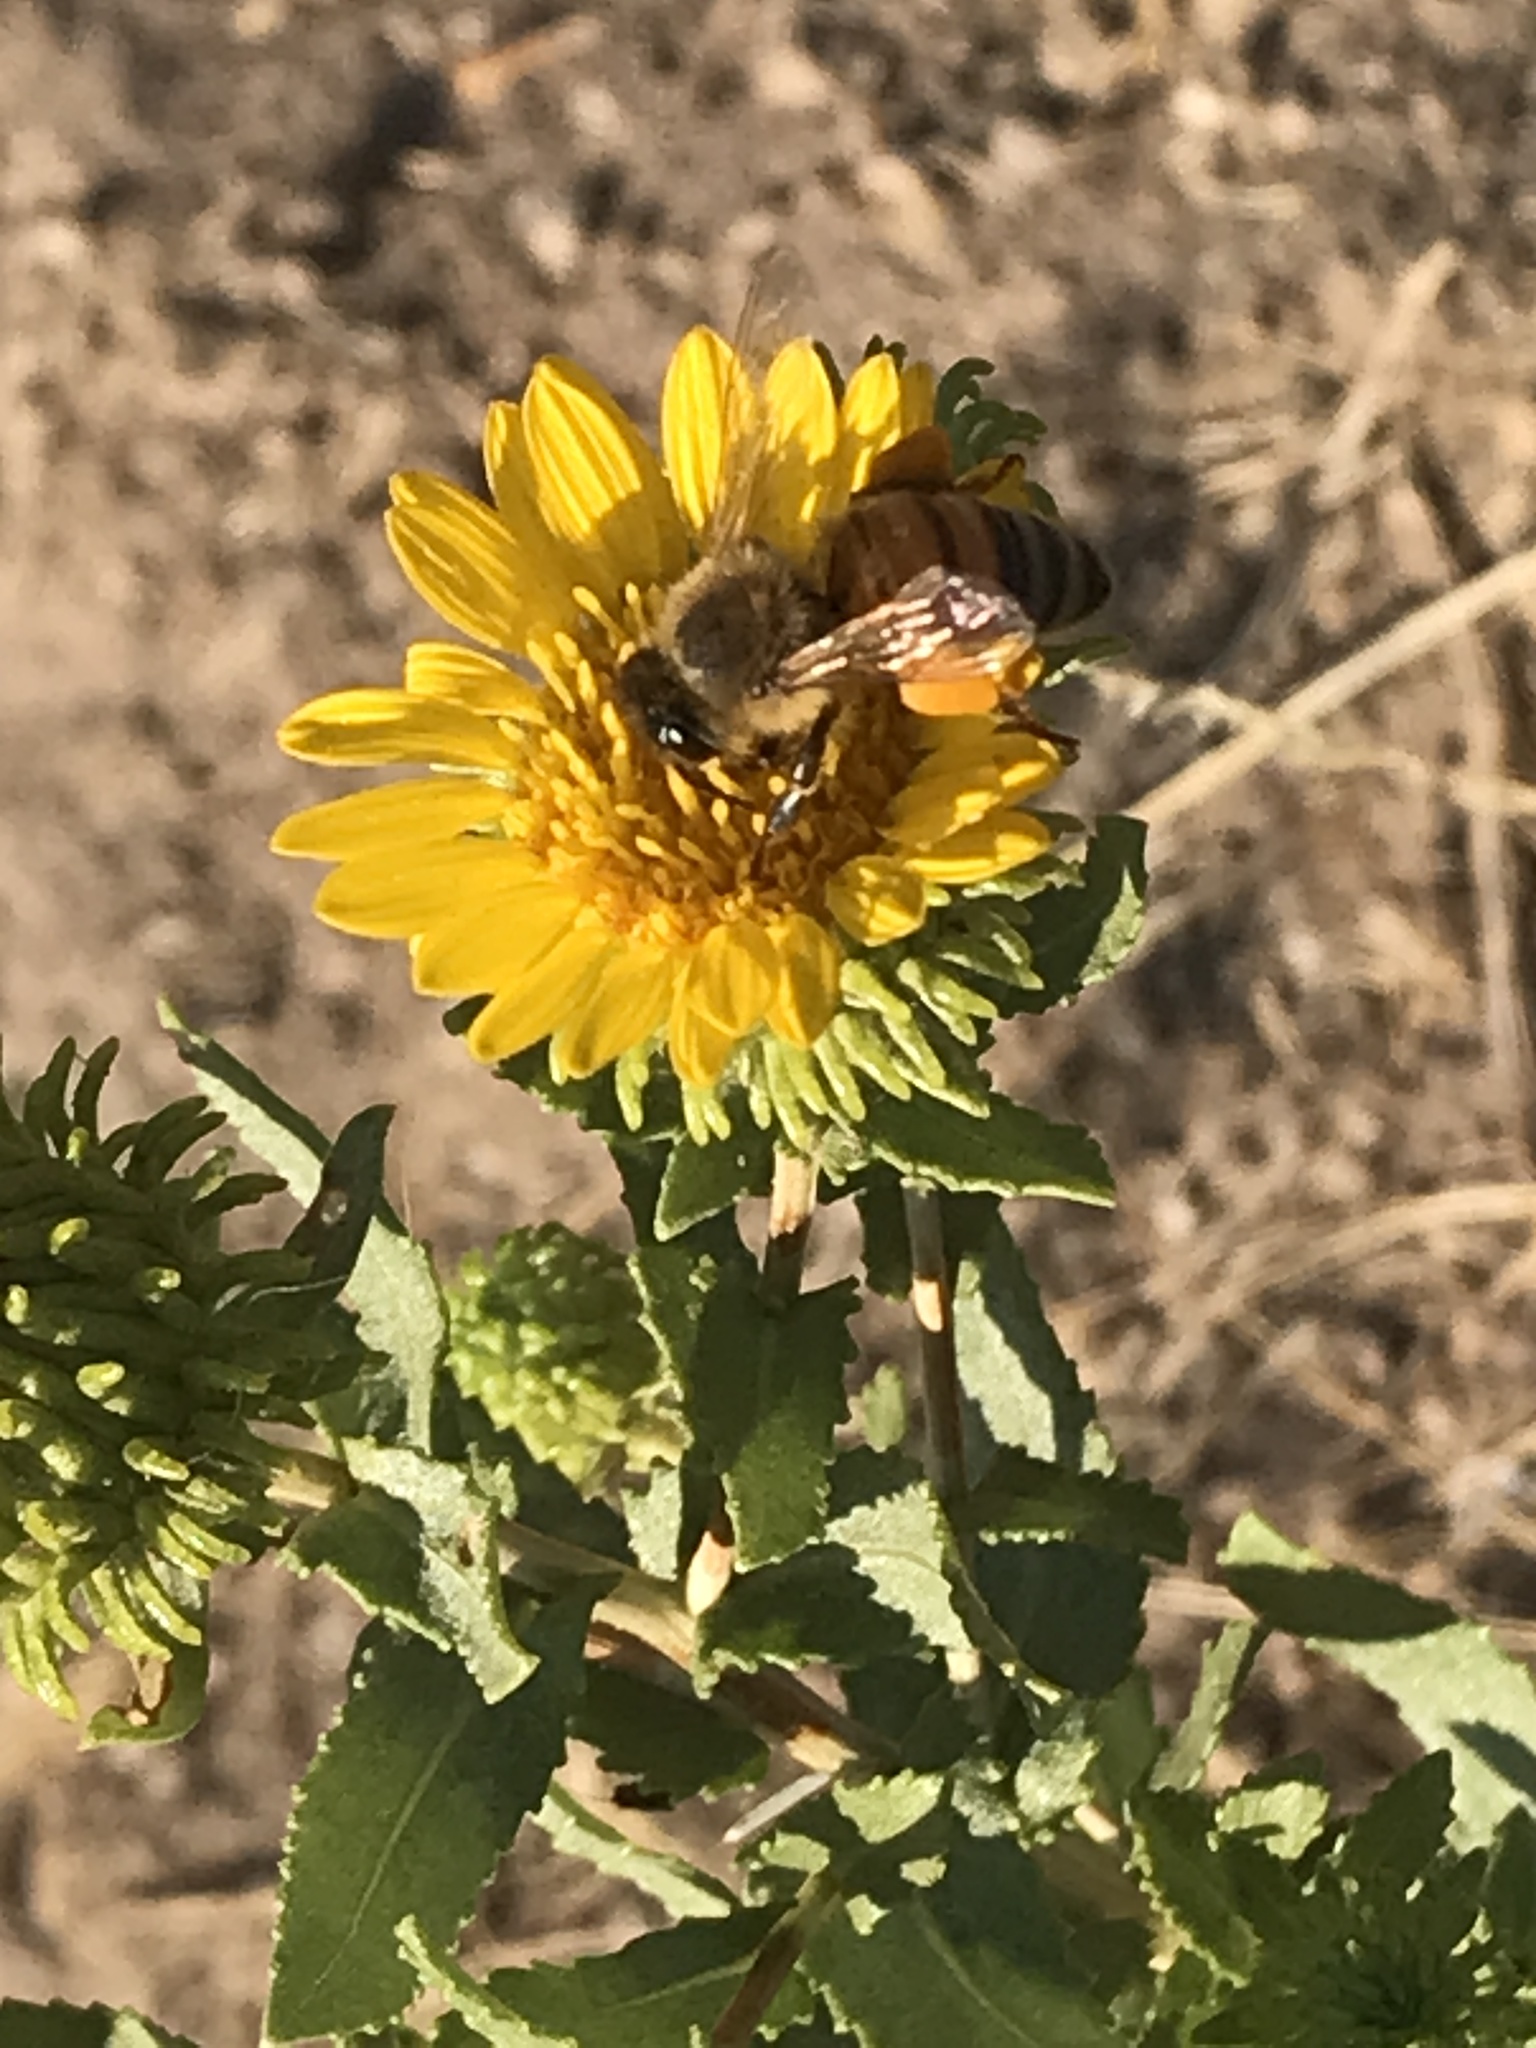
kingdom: Animalia
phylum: Arthropoda
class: Insecta
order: Hymenoptera
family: Apidae
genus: Apis
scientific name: Apis mellifera
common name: Honey bee
